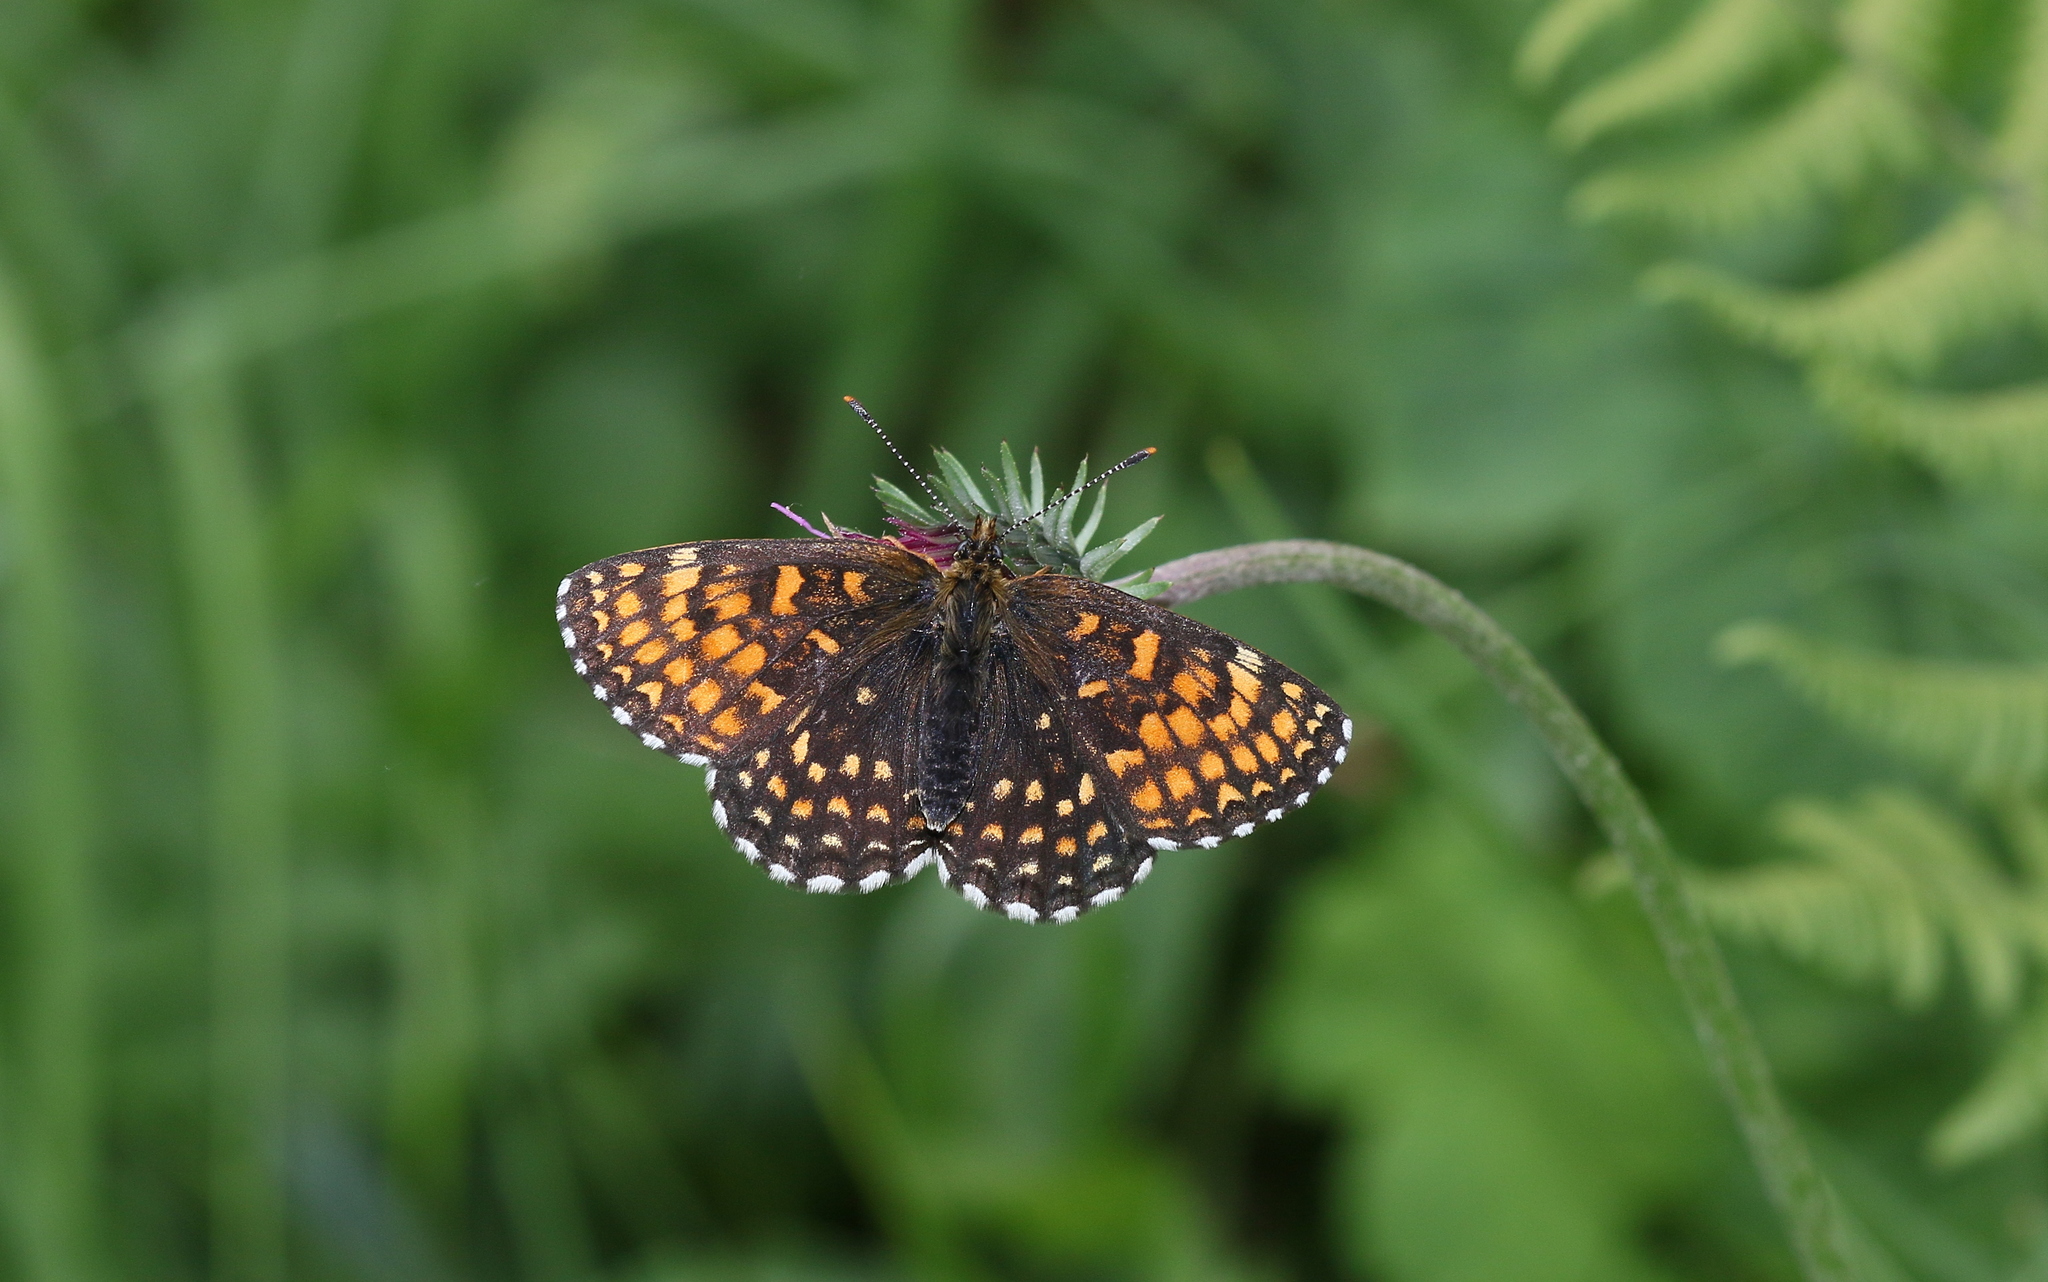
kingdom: Animalia
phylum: Arthropoda
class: Insecta
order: Lepidoptera
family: Nymphalidae
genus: Melitaea
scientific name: Melitaea diamina
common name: False heath fritillary
